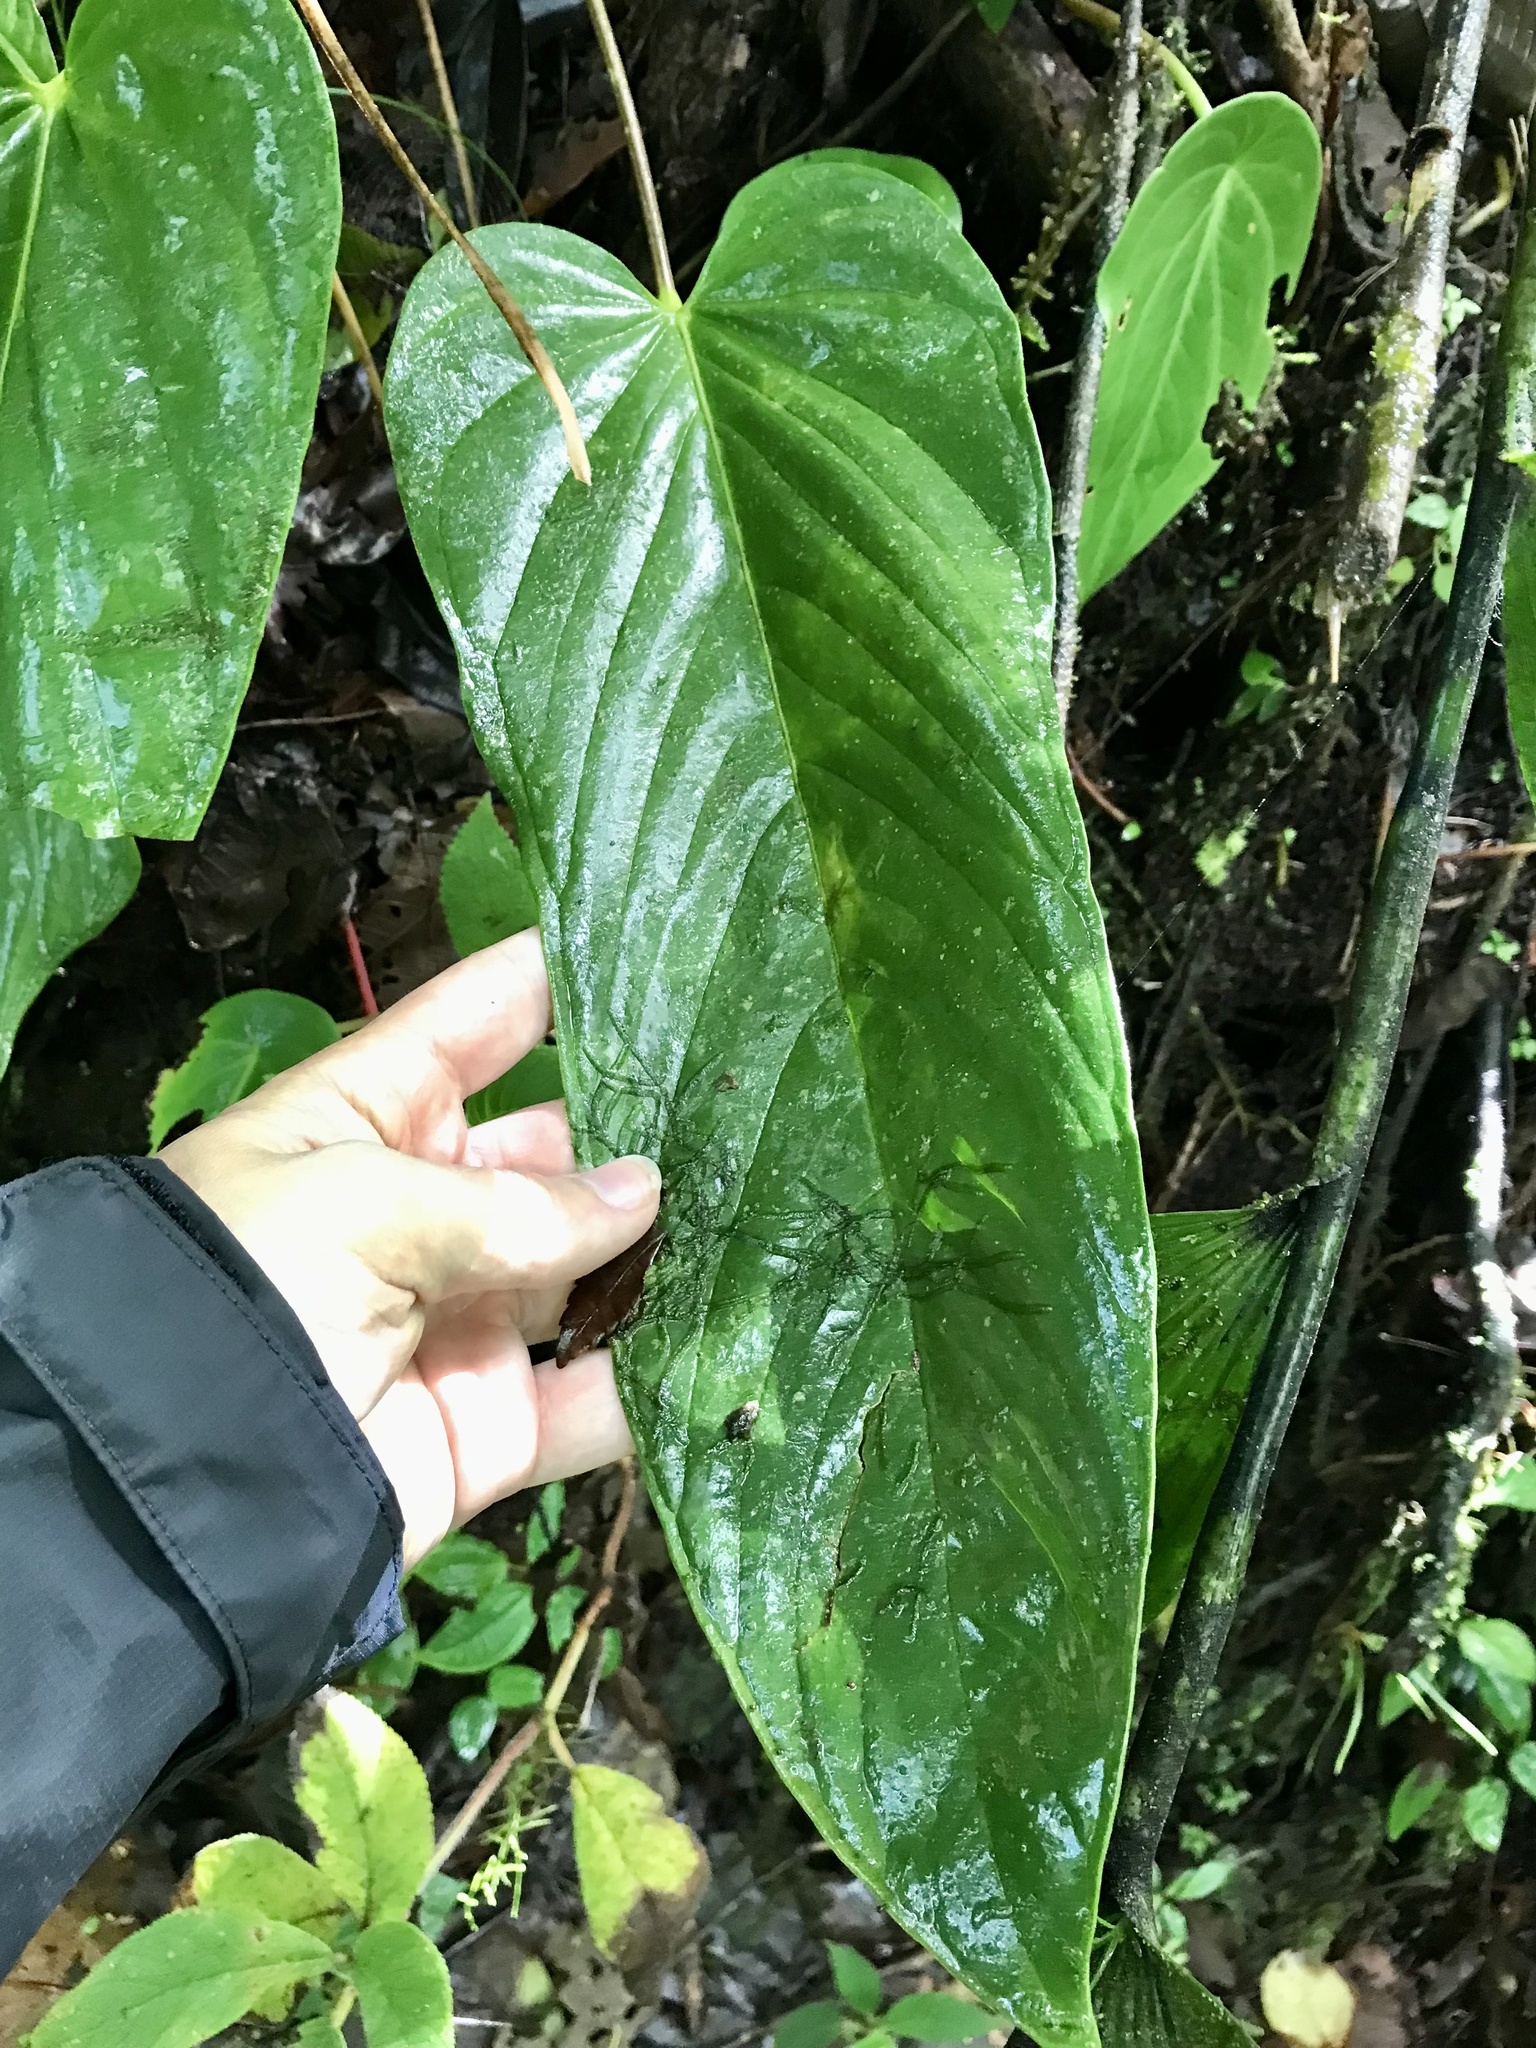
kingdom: Plantae
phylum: Tracheophyta
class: Liliopsida
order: Alismatales
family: Araceae
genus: Anthurium
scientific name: Anthurium talamancae
